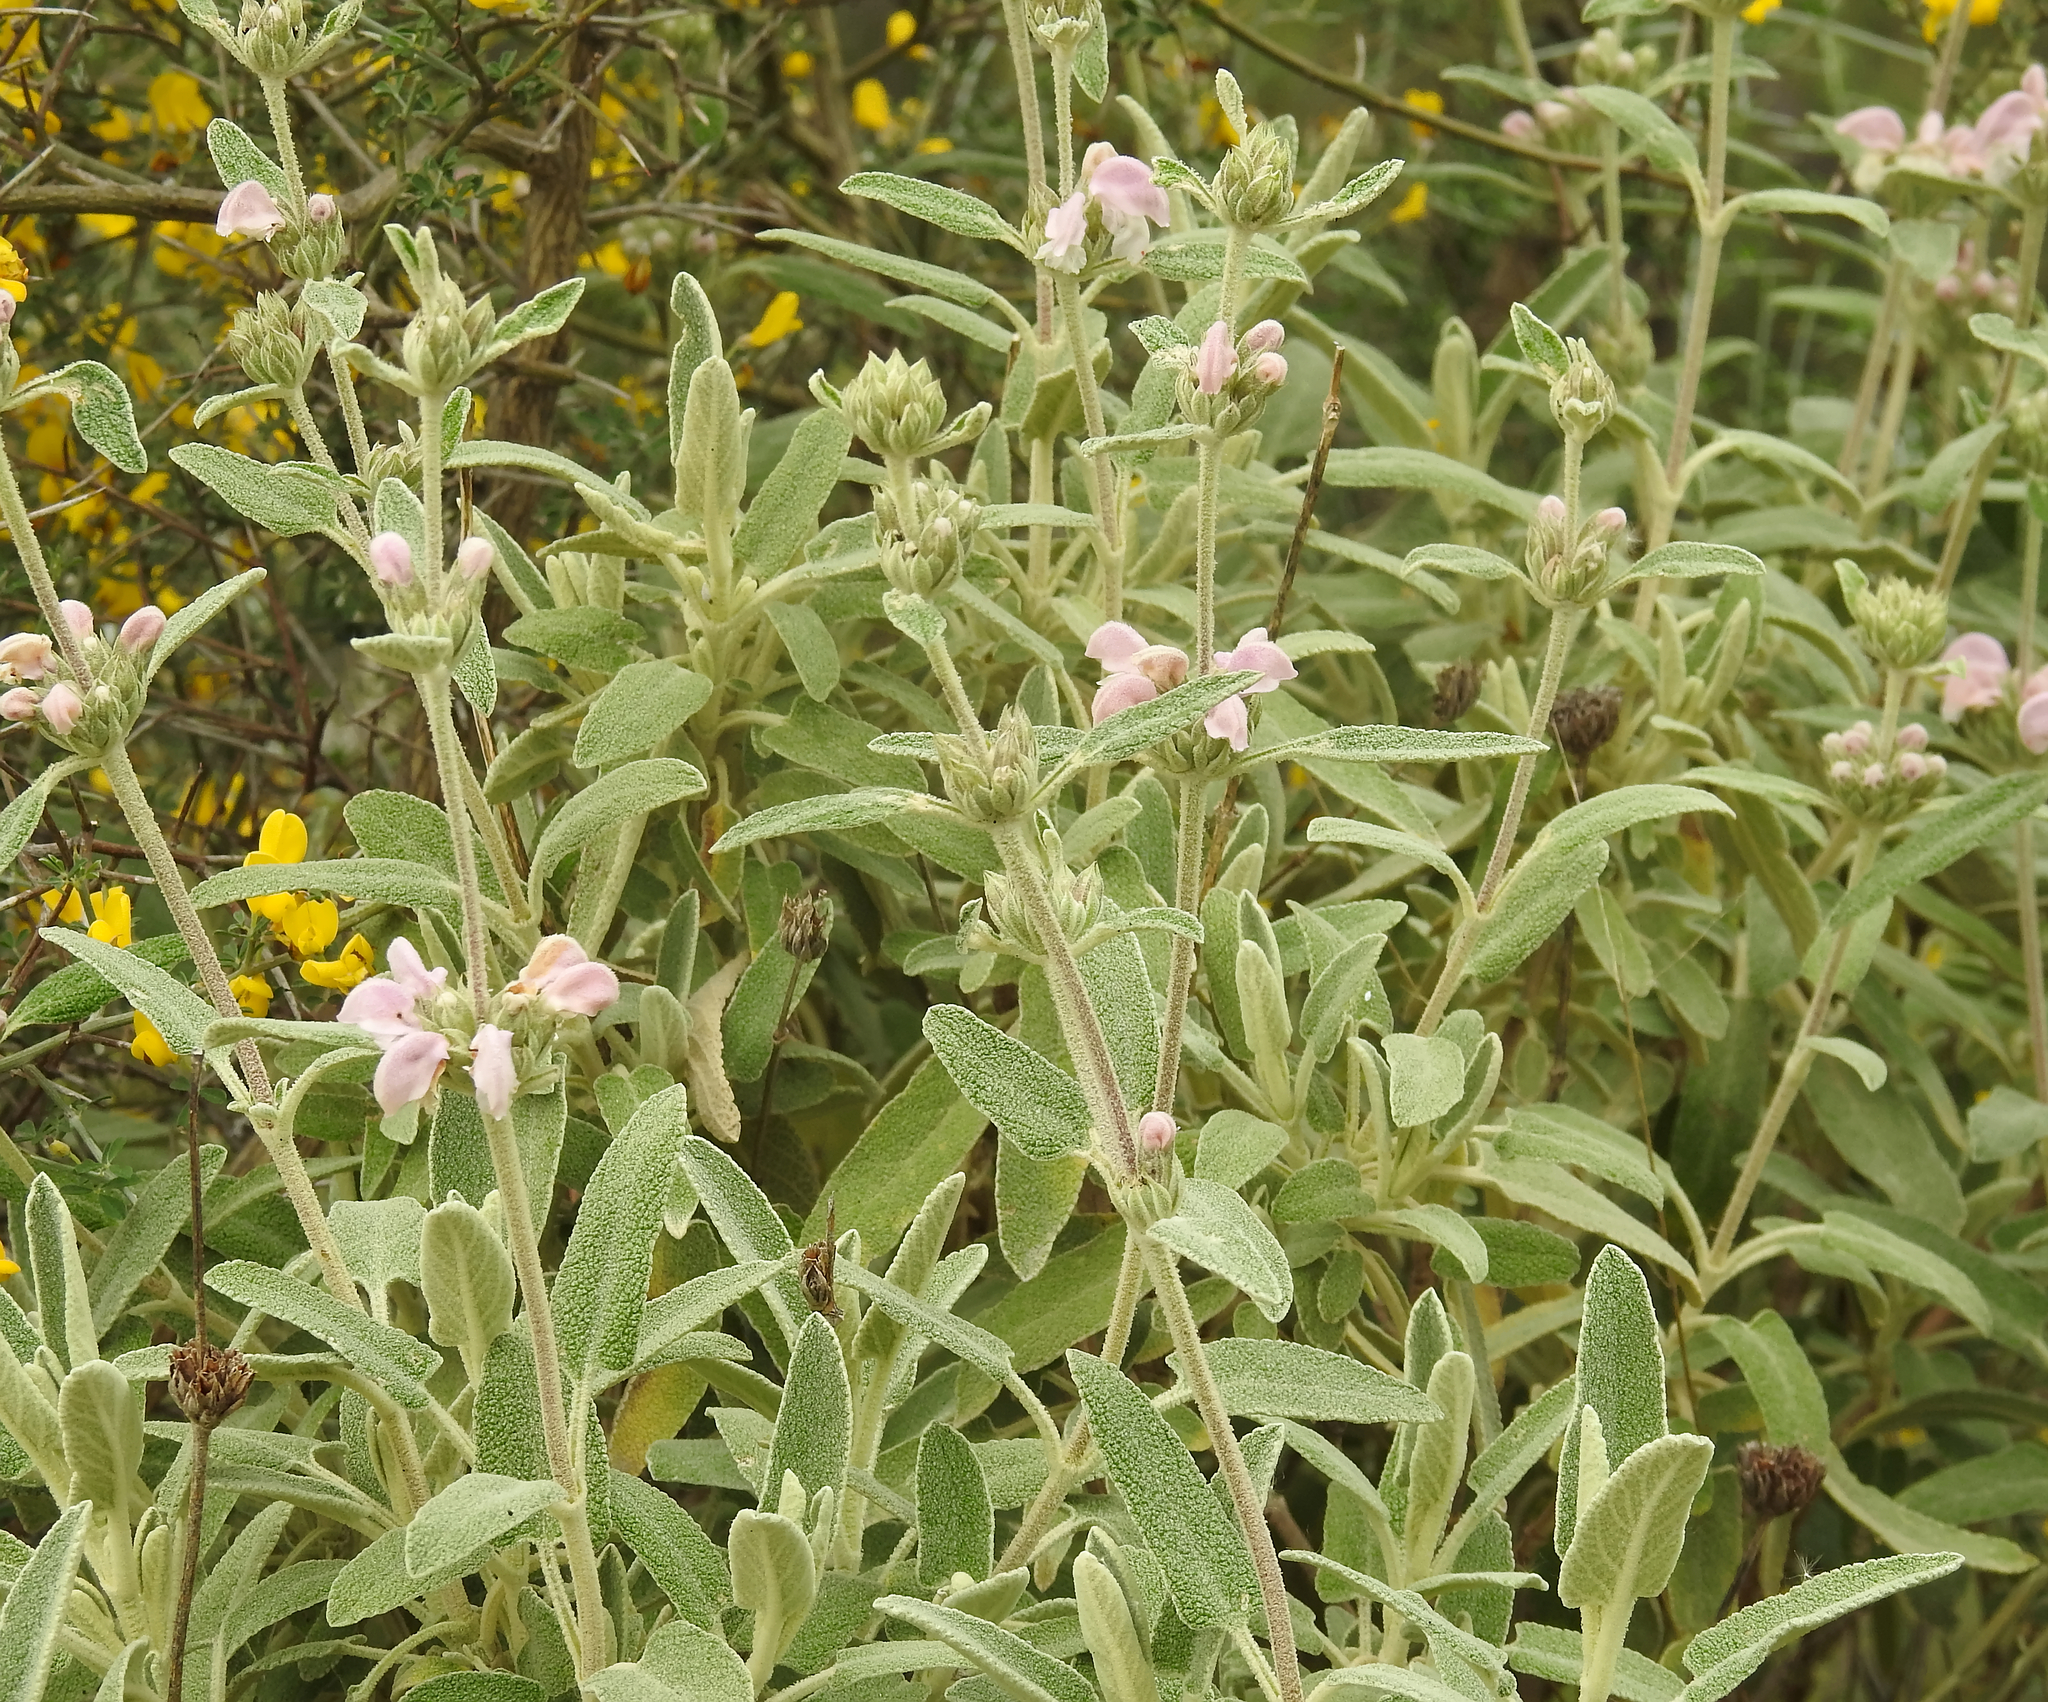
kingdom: Plantae
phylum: Tracheophyta
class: Magnoliopsida
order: Lamiales
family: Lamiaceae
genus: Phlomis
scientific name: Phlomis purpurea
